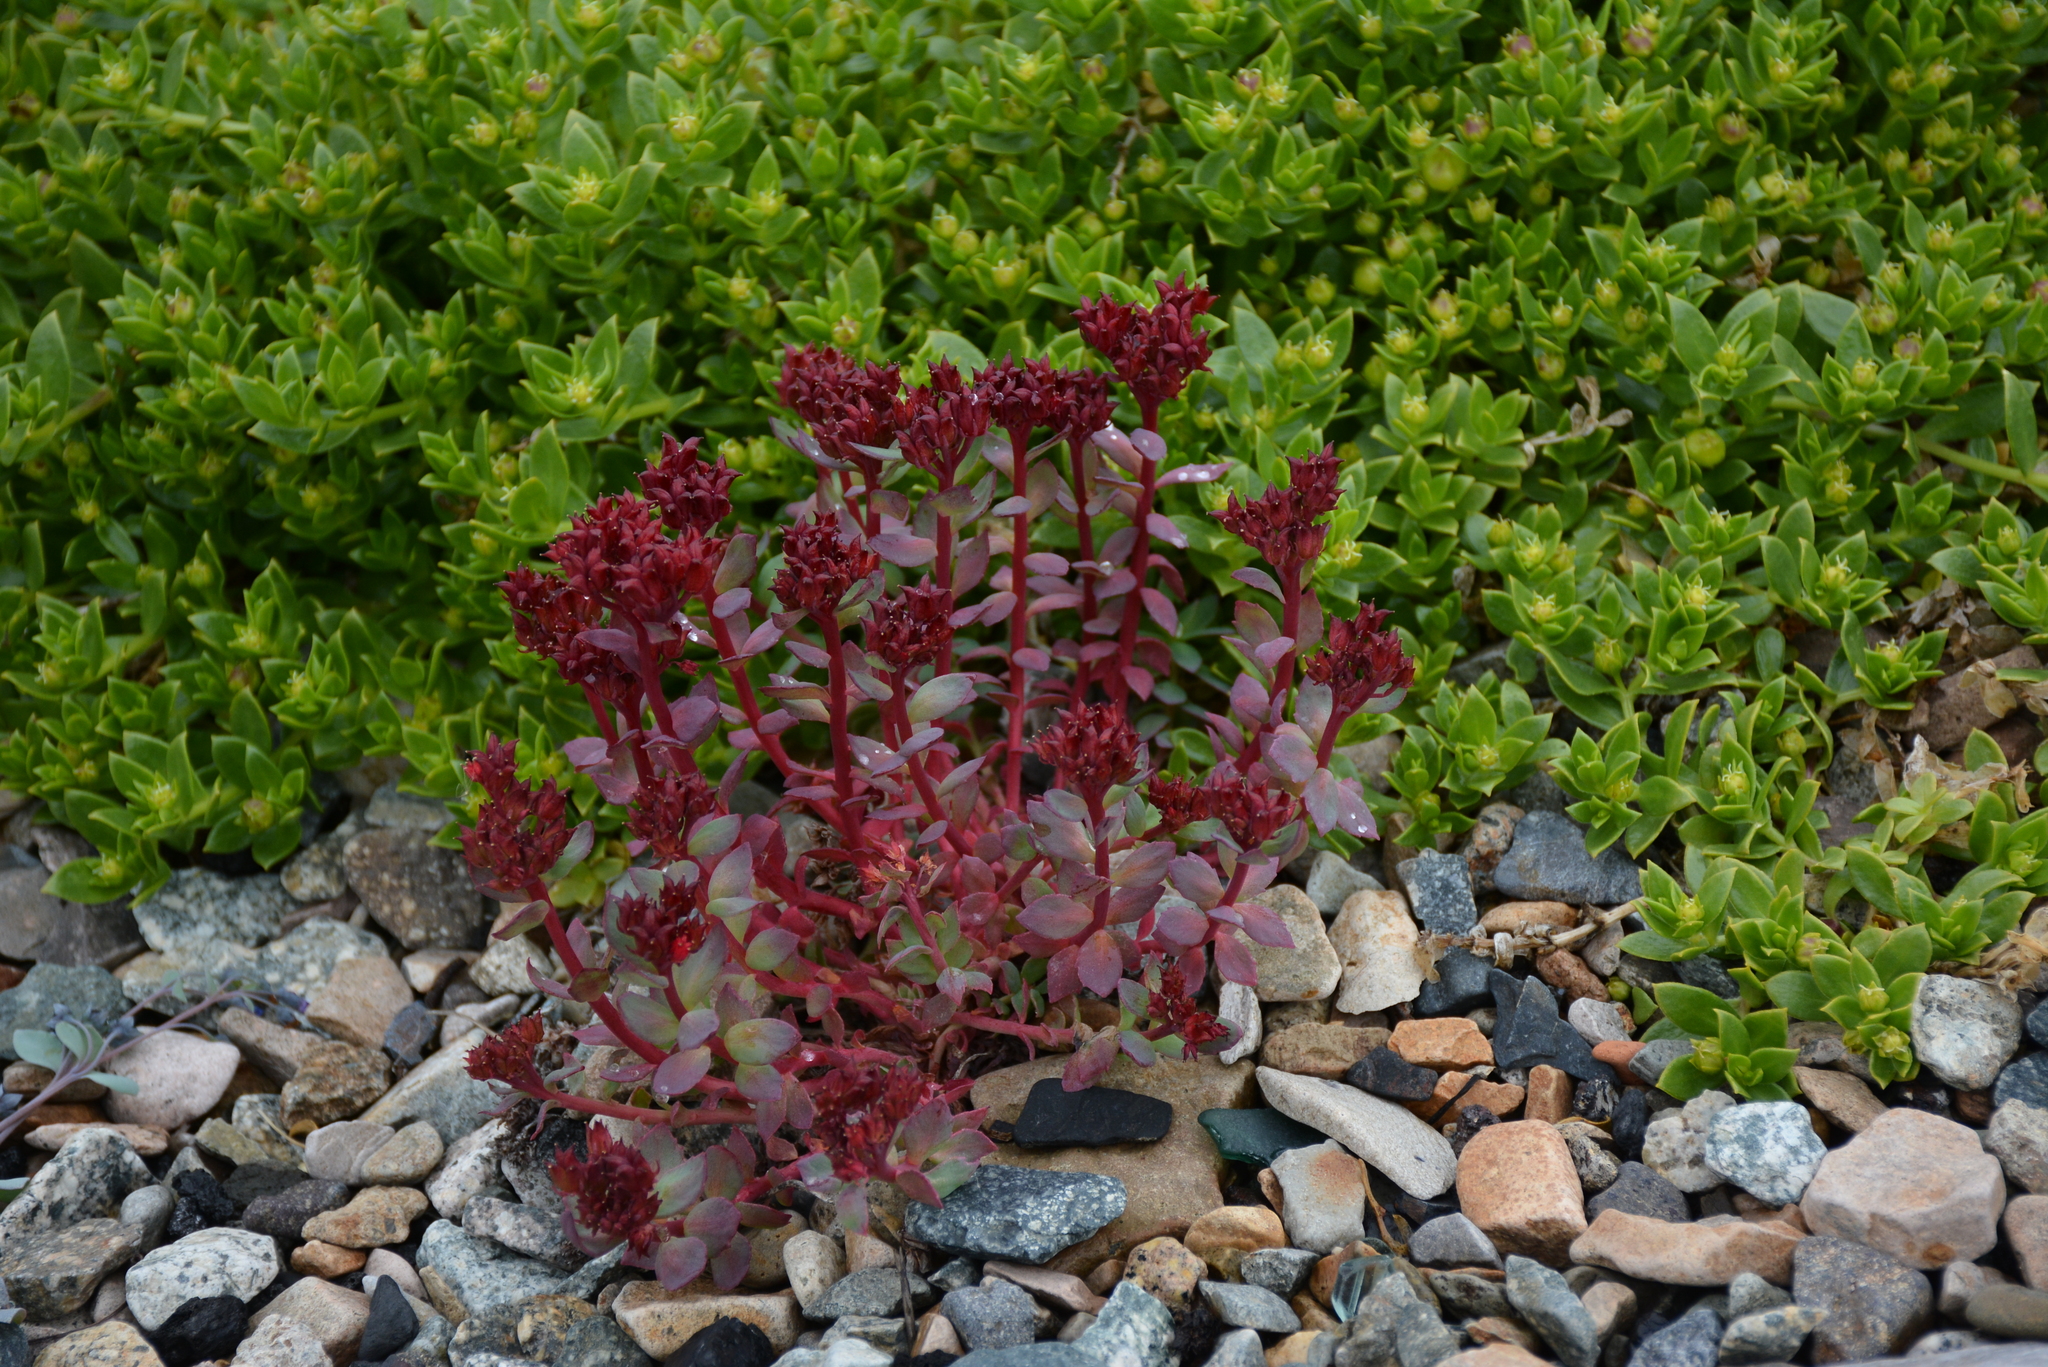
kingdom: Plantae
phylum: Tracheophyta
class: Magnoliopsida
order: Saxifragales
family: Crassulaceae
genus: Rhodiola
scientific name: Rhodiola integrifolia
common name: Western roseroot
